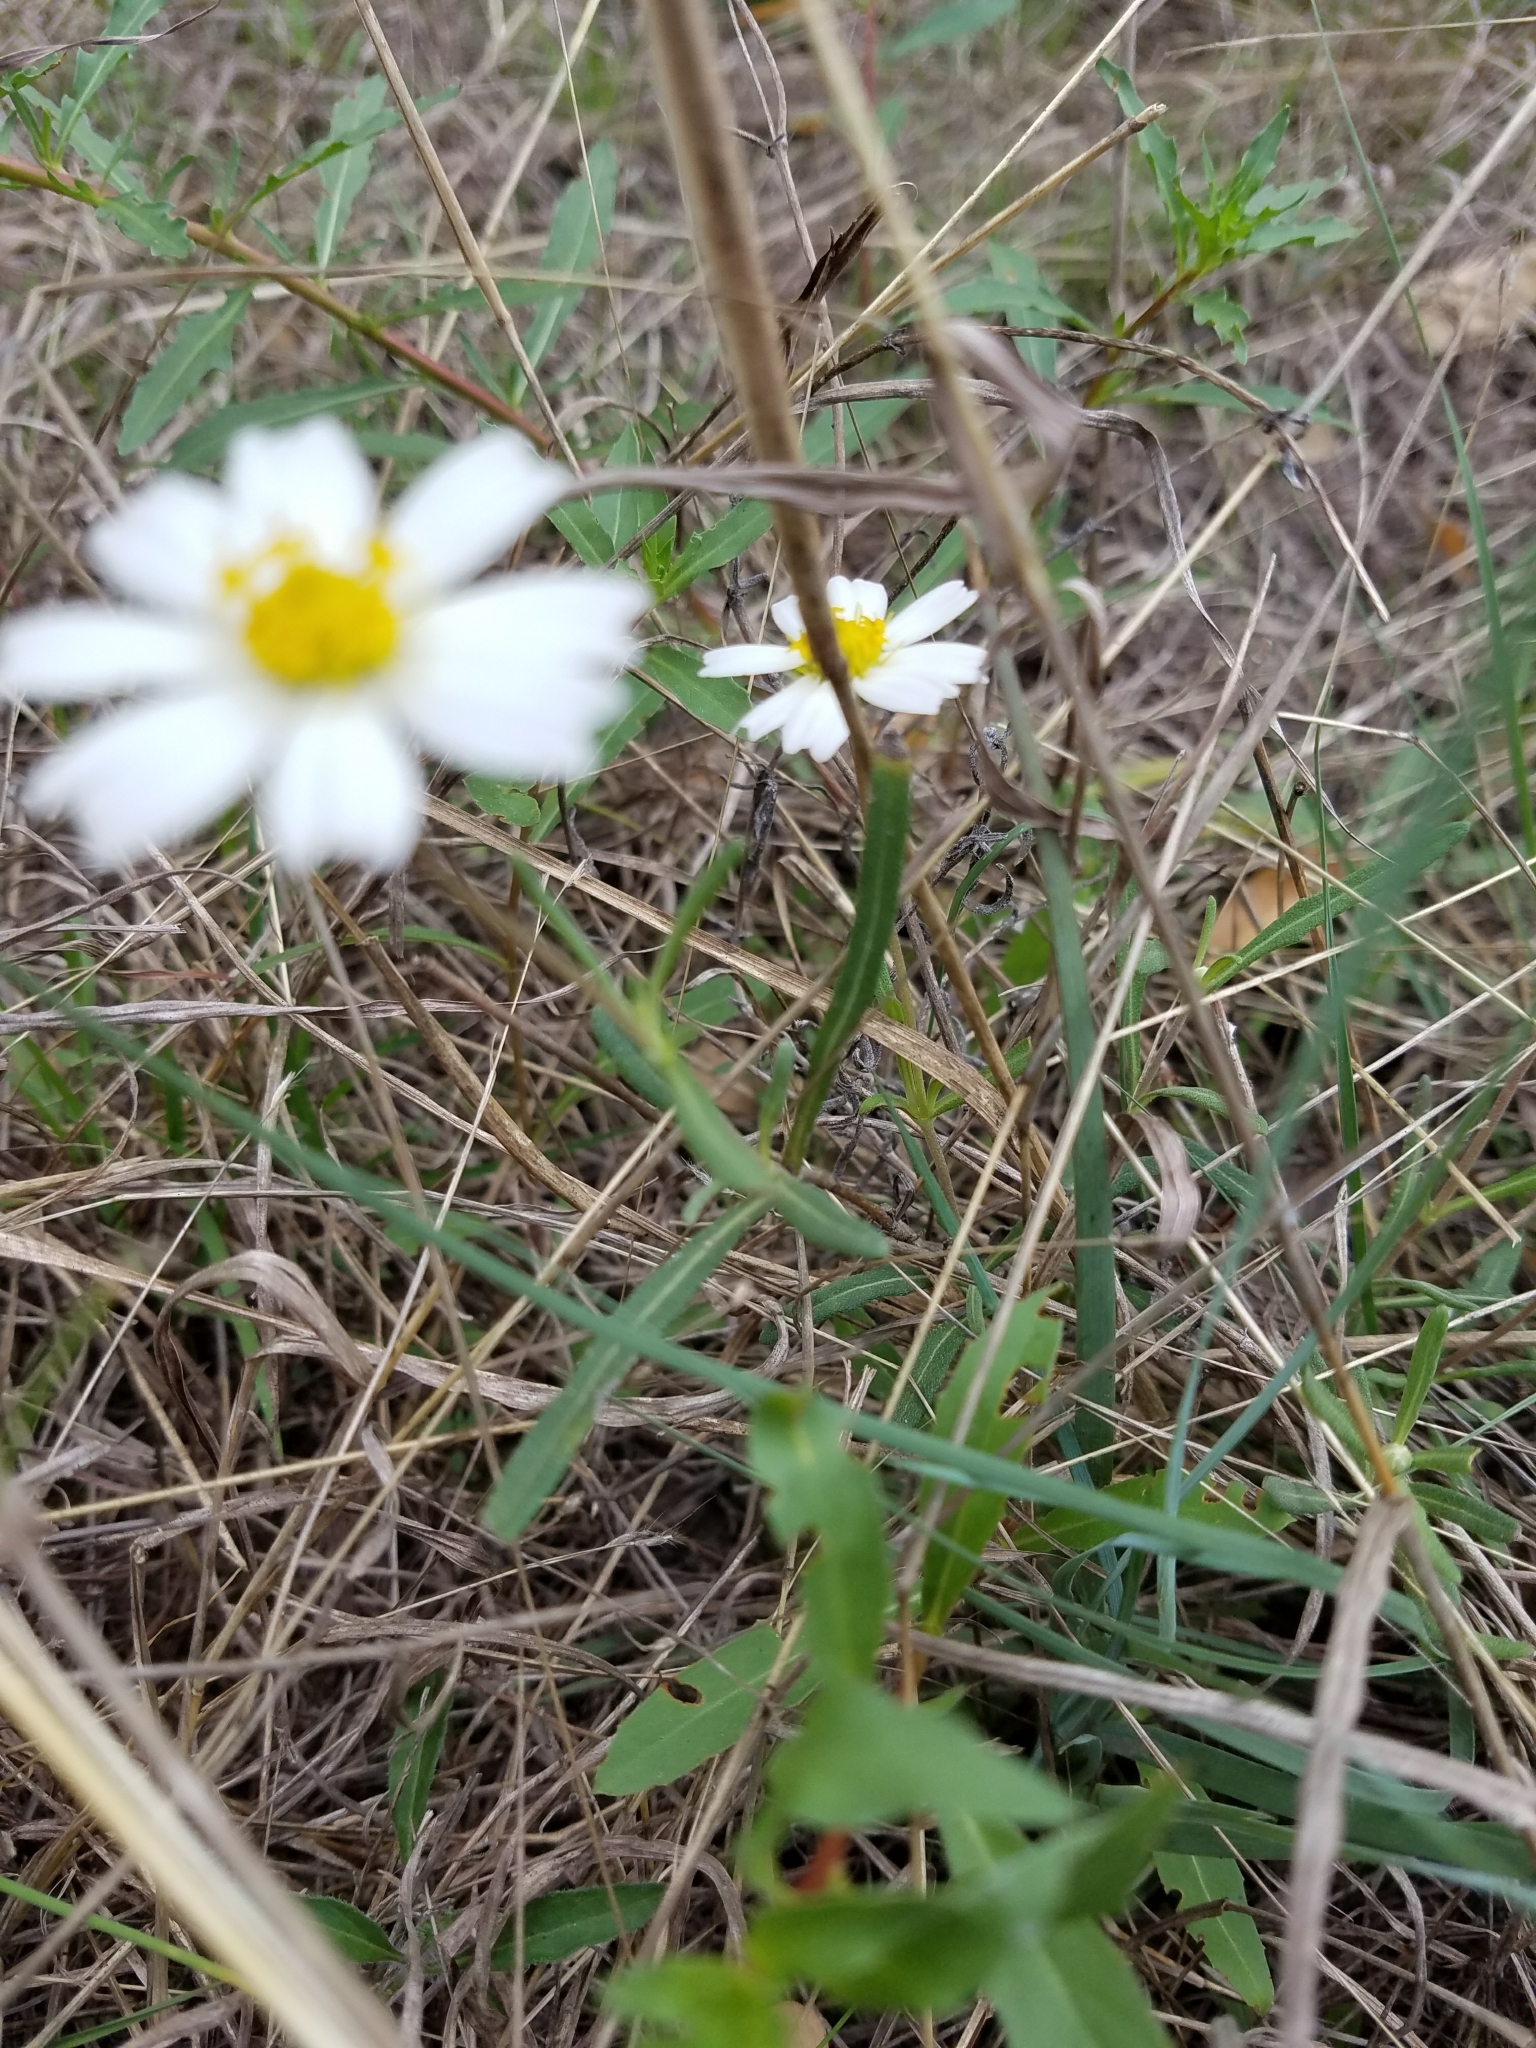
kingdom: Plantae
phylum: Tracheophyta
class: Magnoliopsida
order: Asterales
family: Asteraceae
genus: Melampodium
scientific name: Melampodium leucanthum
